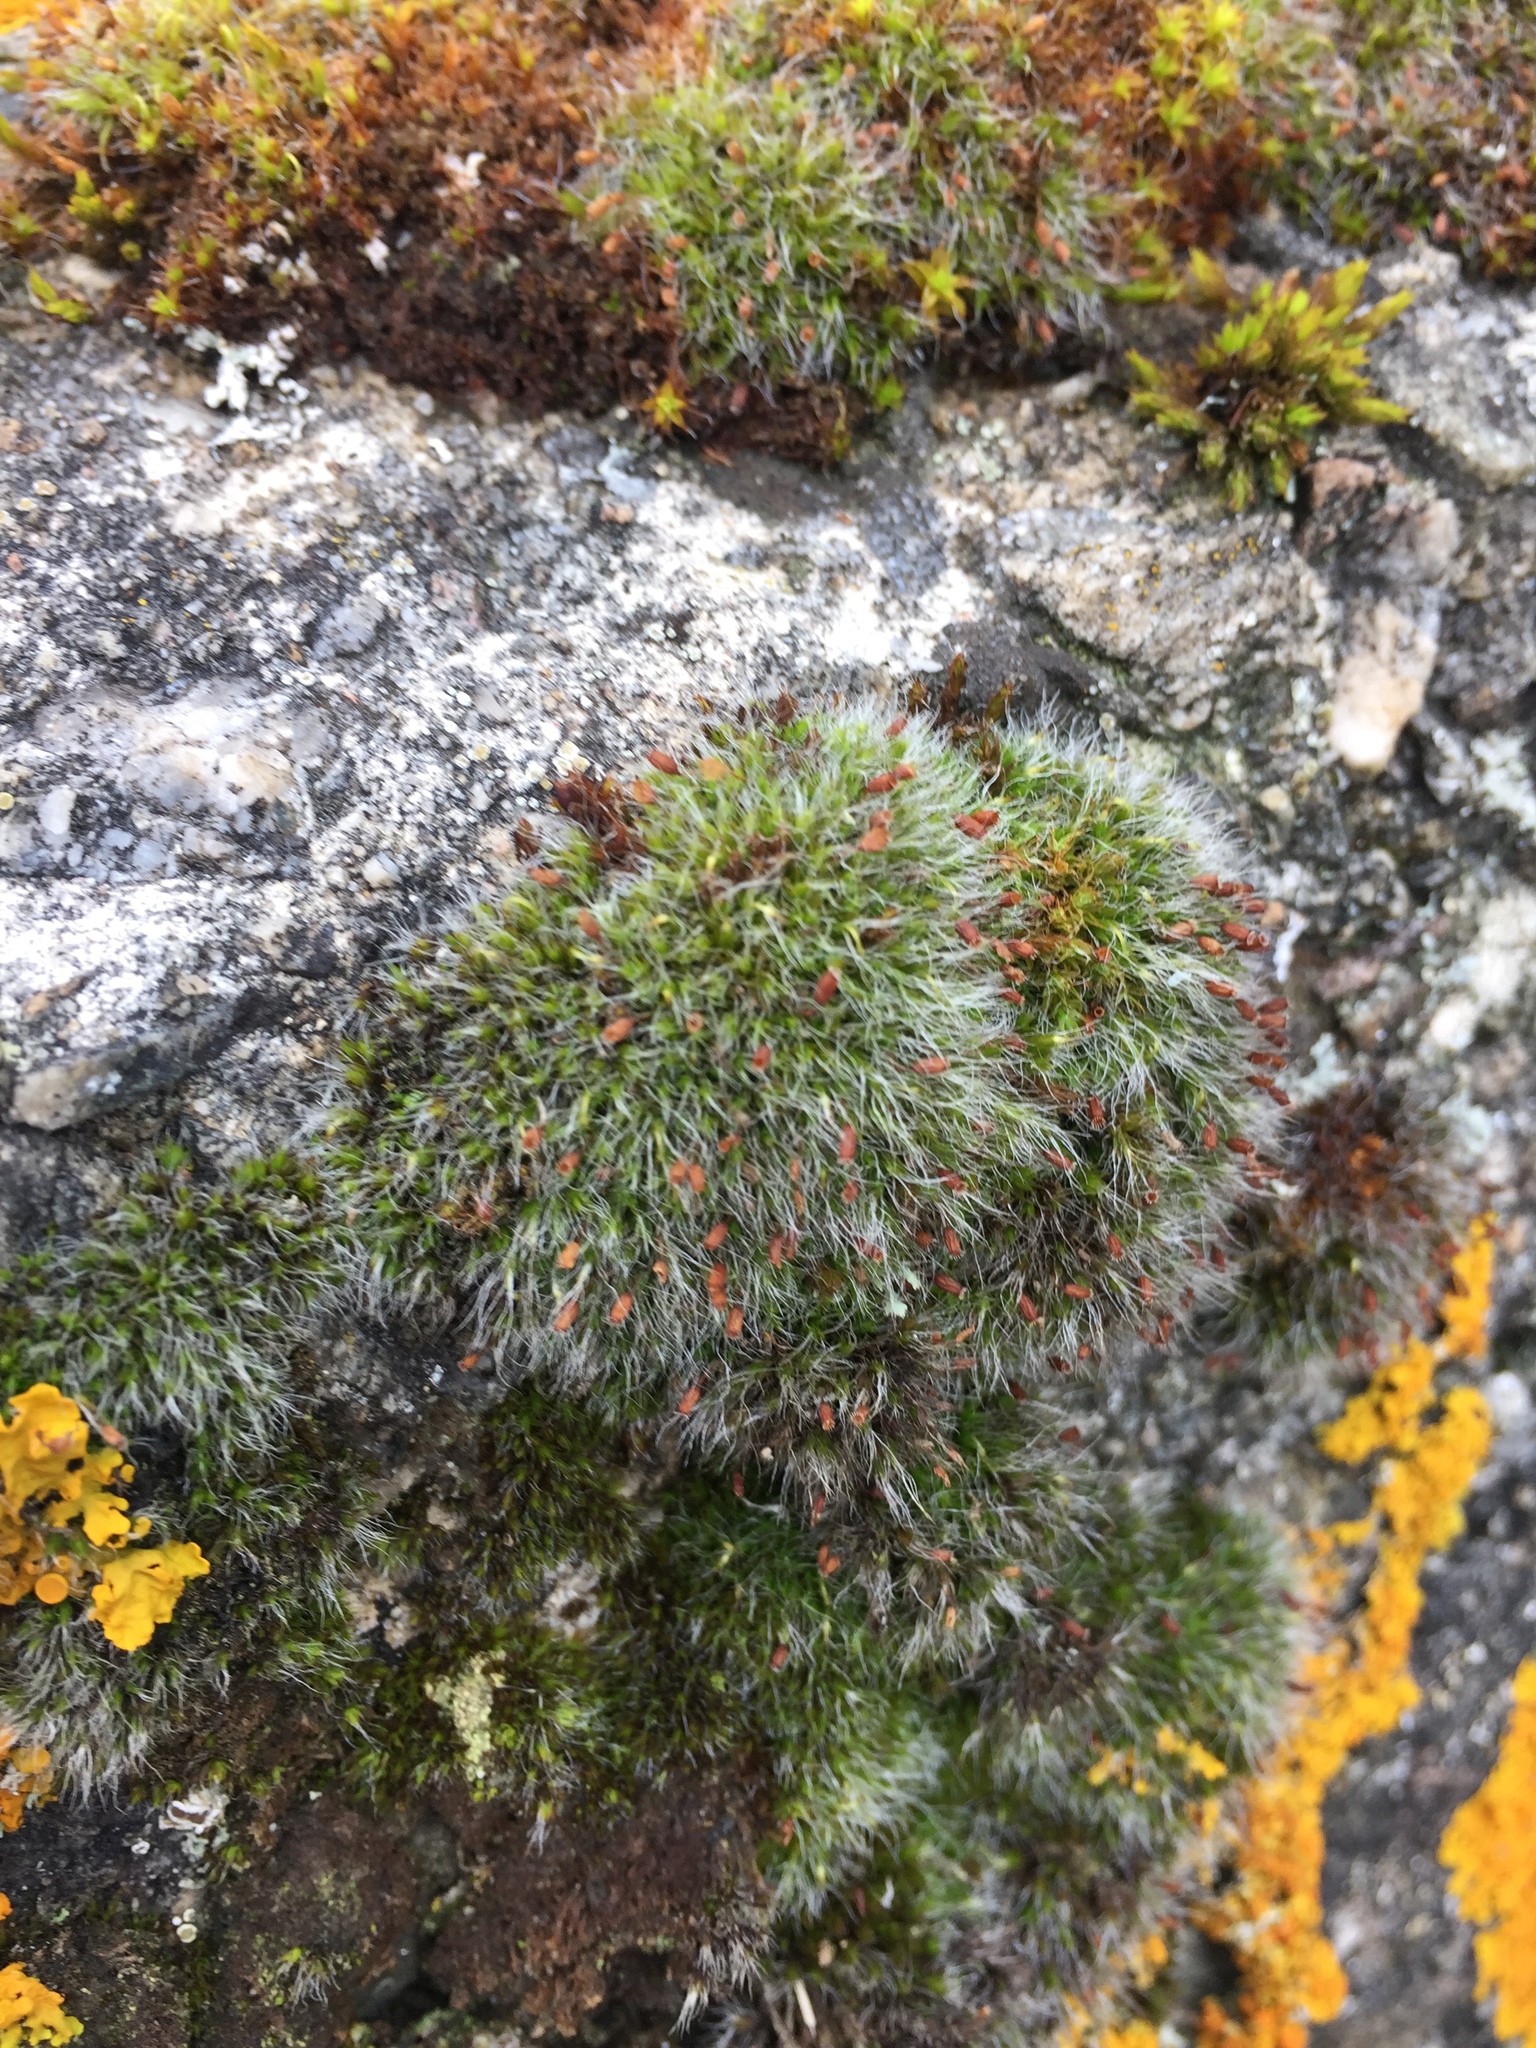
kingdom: Plantae
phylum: Bryophyta
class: Bryopsida
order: Grimmiales
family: Grimmiaceae
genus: Grimmia
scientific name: Grimmia pulvinata
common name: Grey-cushioned grimmia
